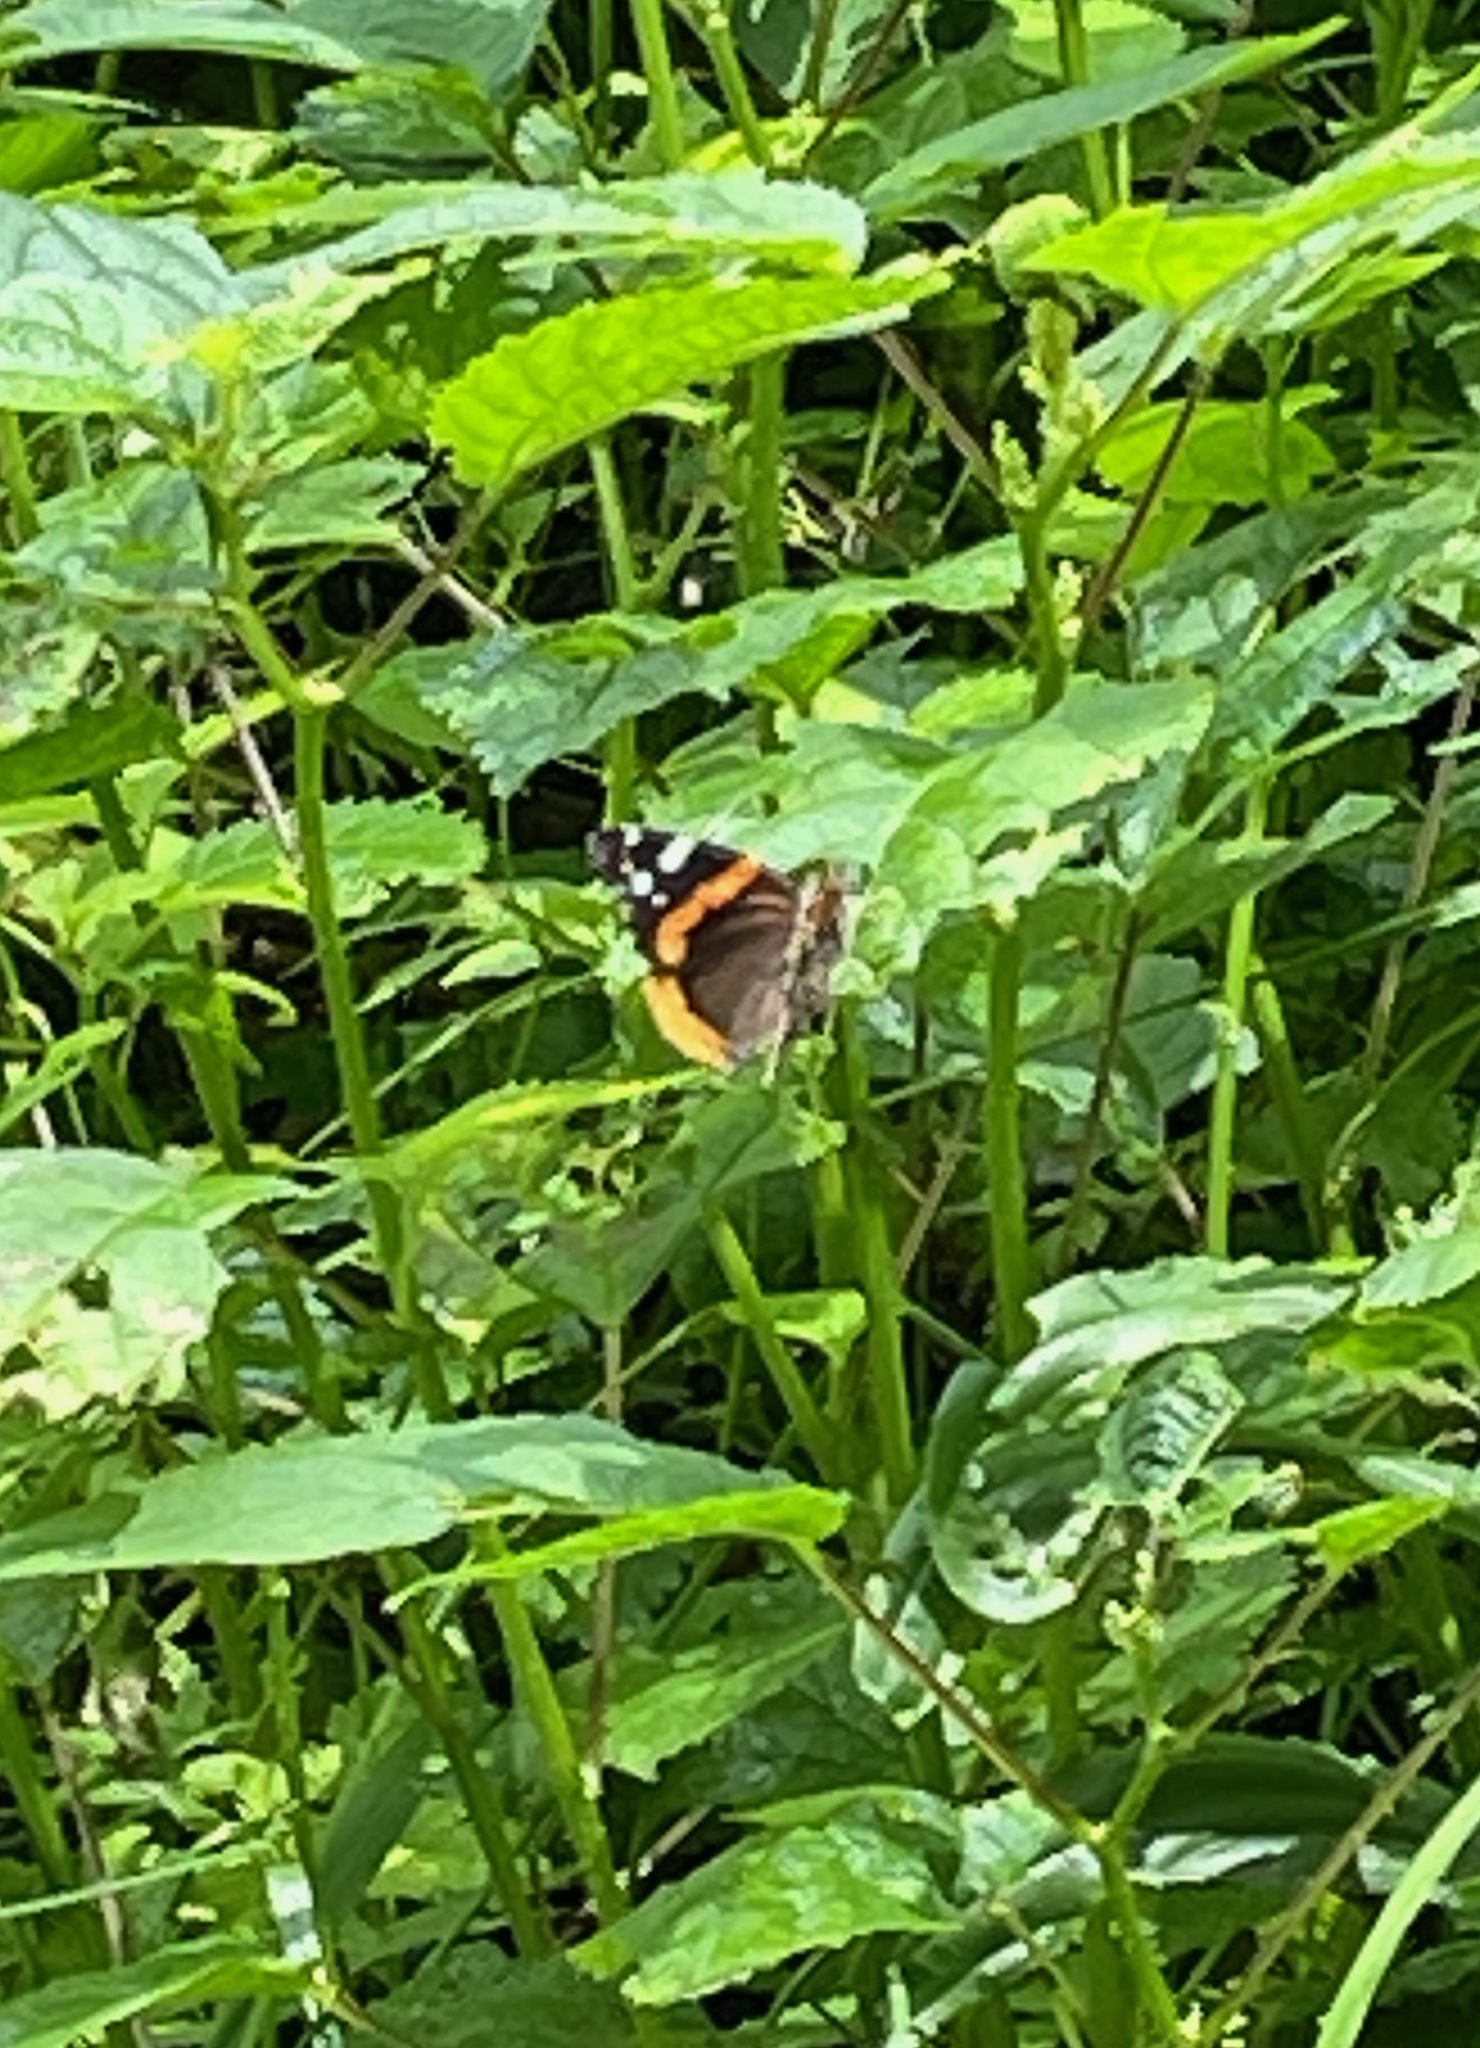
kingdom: Animalia
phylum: Arthropoda
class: Insecta
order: Lepidoptera
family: Nymphalidae
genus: Vanessa
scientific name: Vanessa atalanta
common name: Red admiral
